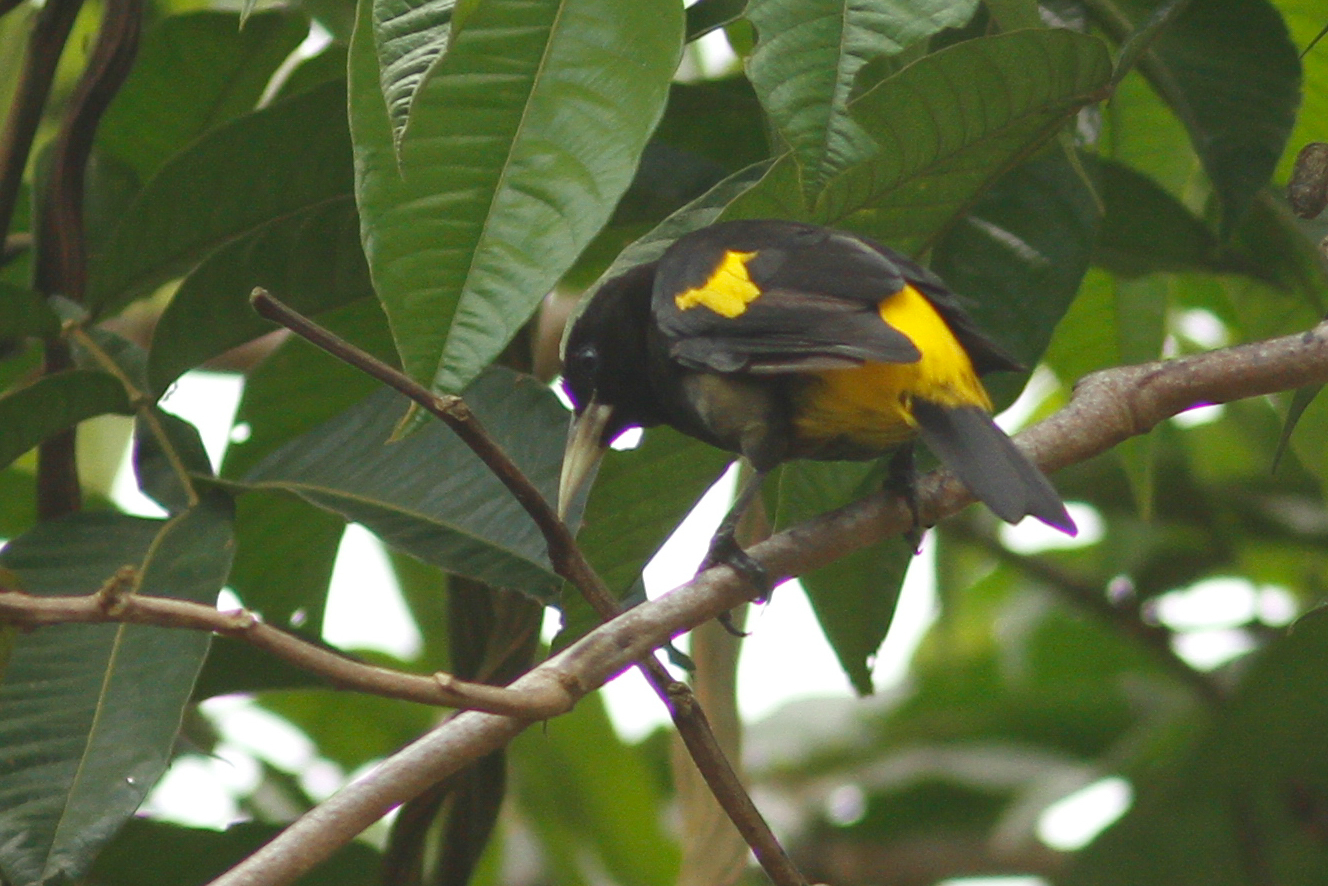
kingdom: Animalia
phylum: Chordata
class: Aves
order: Passeriformes
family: Icteridae
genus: Cacicus
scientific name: Cacicus cela
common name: Yellow-rumped cacique
